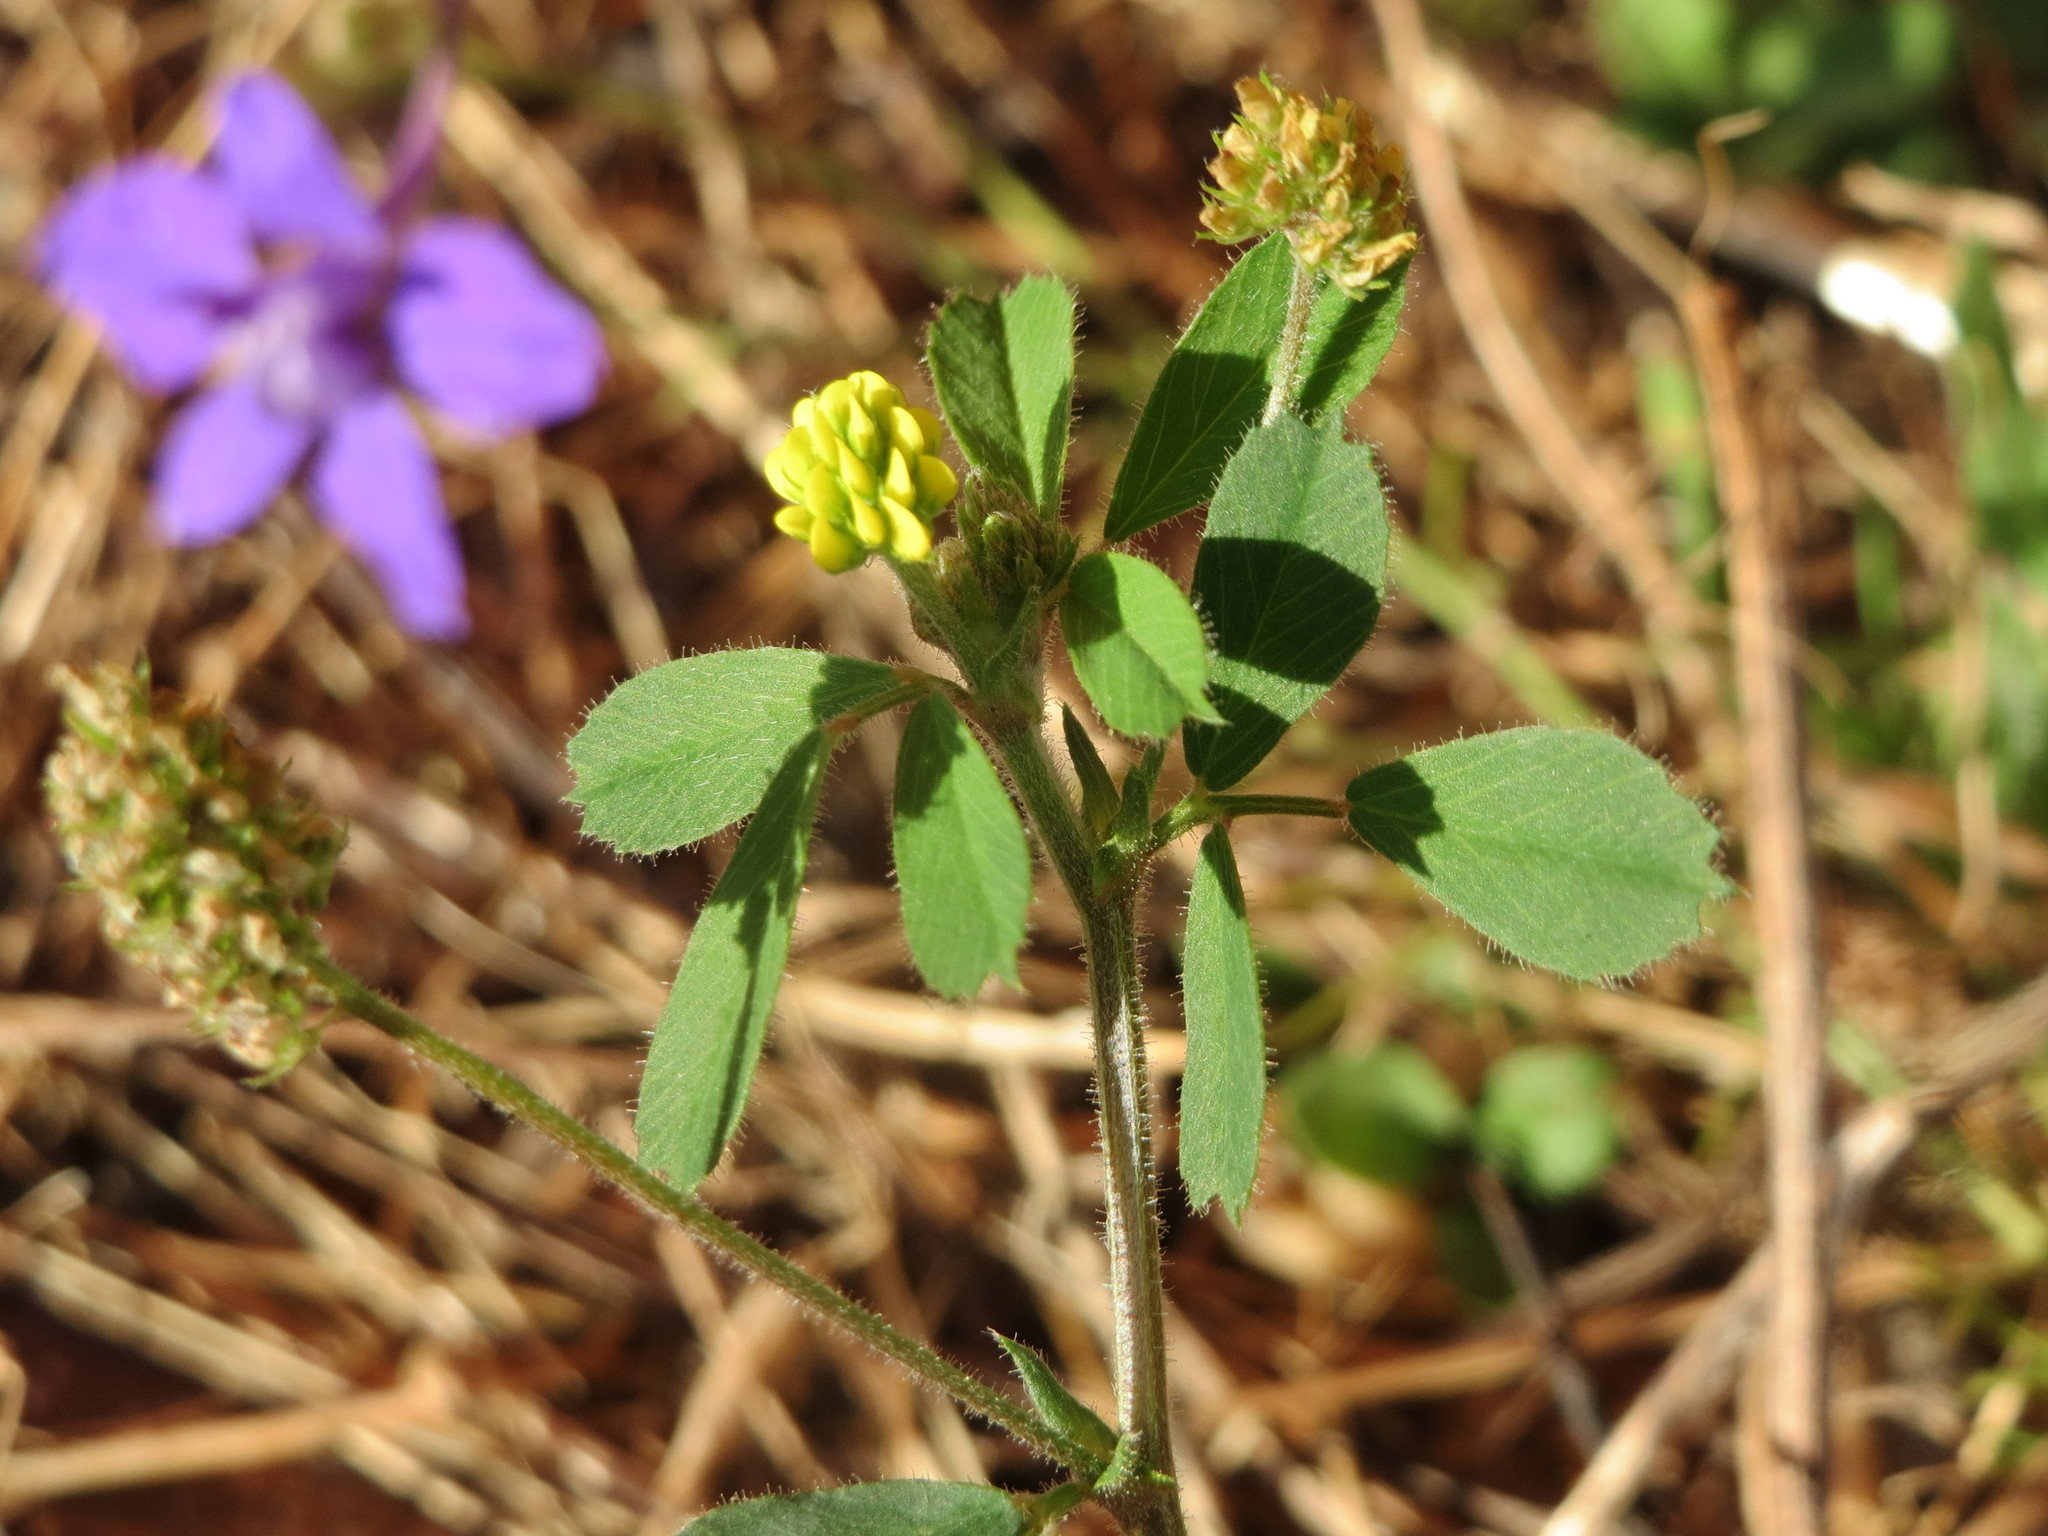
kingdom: Plantae
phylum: Tracheophyta
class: Magnoliopsida
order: Fabales
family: Fabaceae
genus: Medicago
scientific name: Medicago lupulina
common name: Black medick
